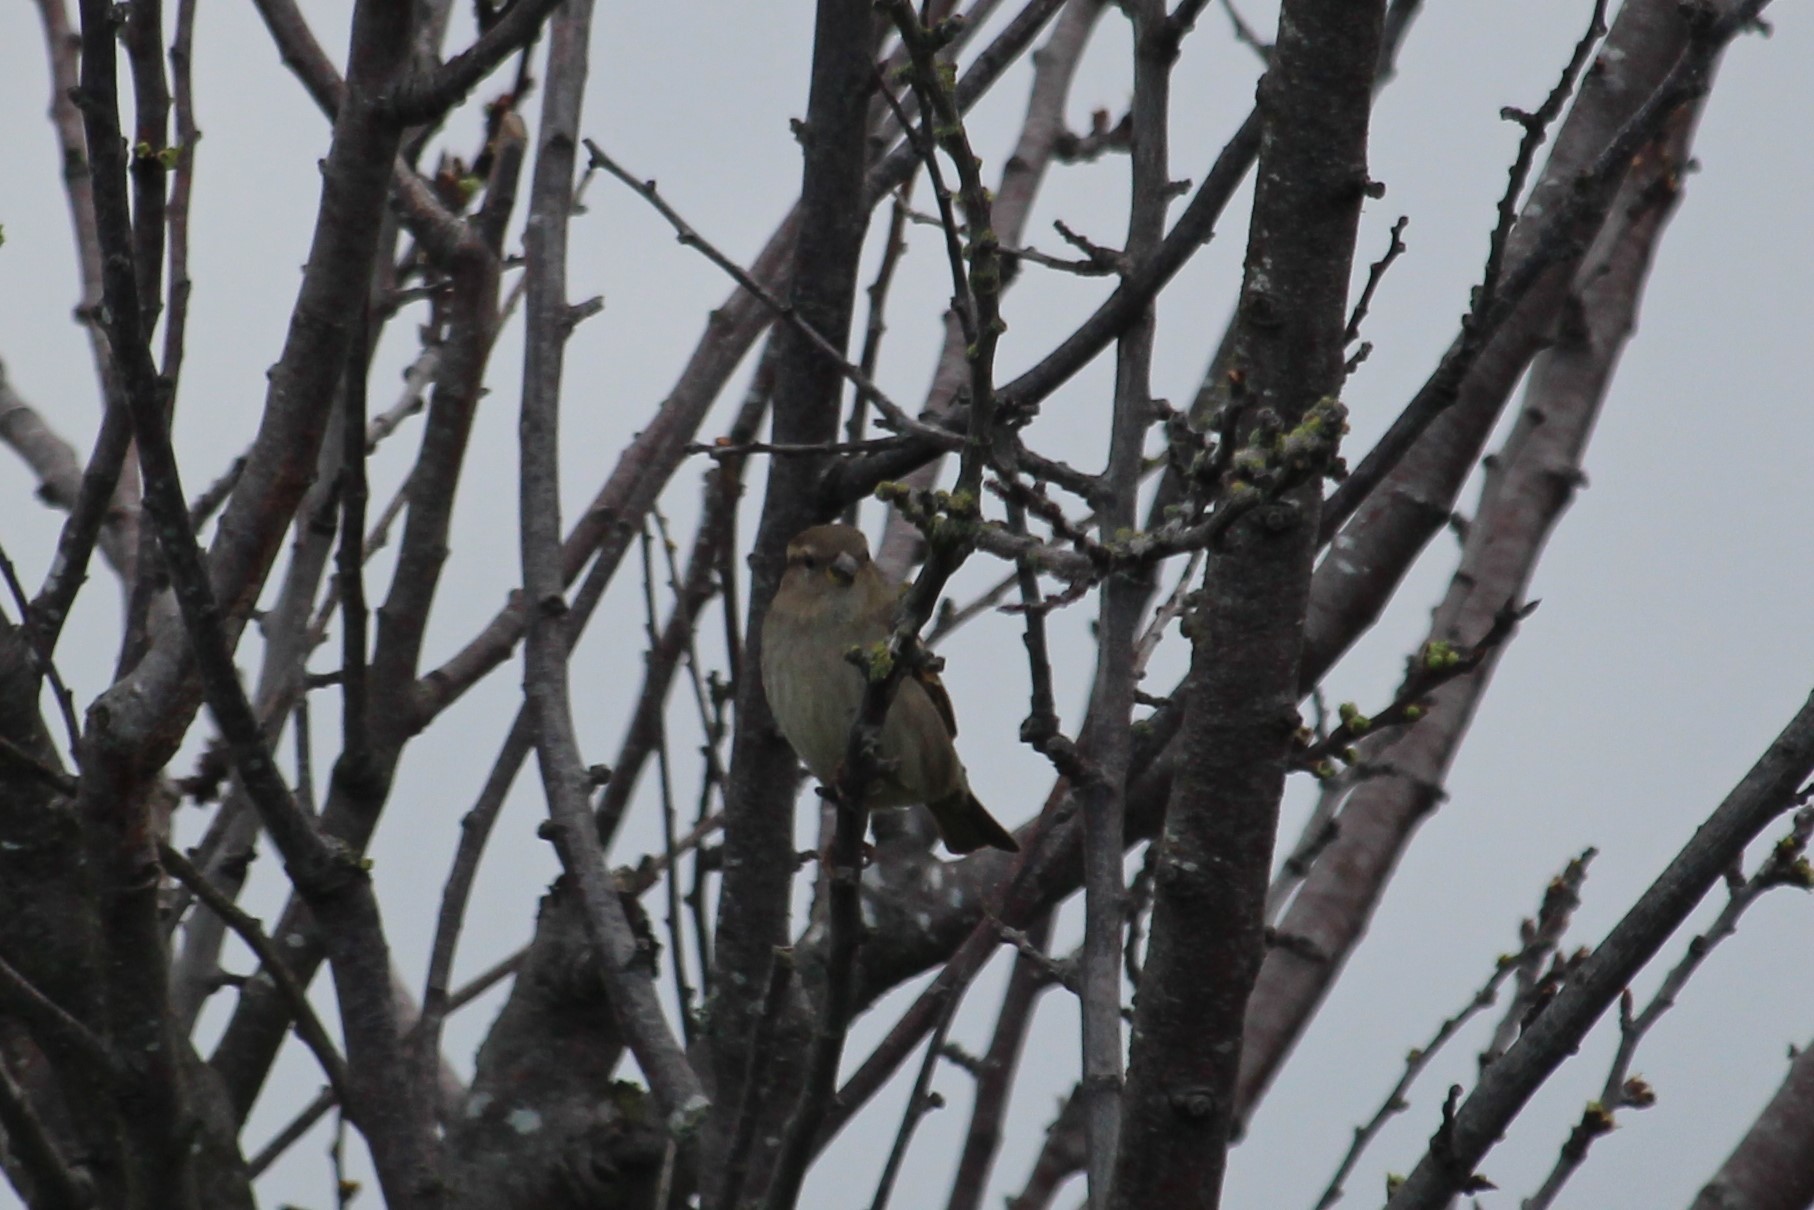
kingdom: Animalia
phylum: Chordata
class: Aves
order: Passeriformes
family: Passeridae
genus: Passer
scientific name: Passer domesticus
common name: House sparrow
